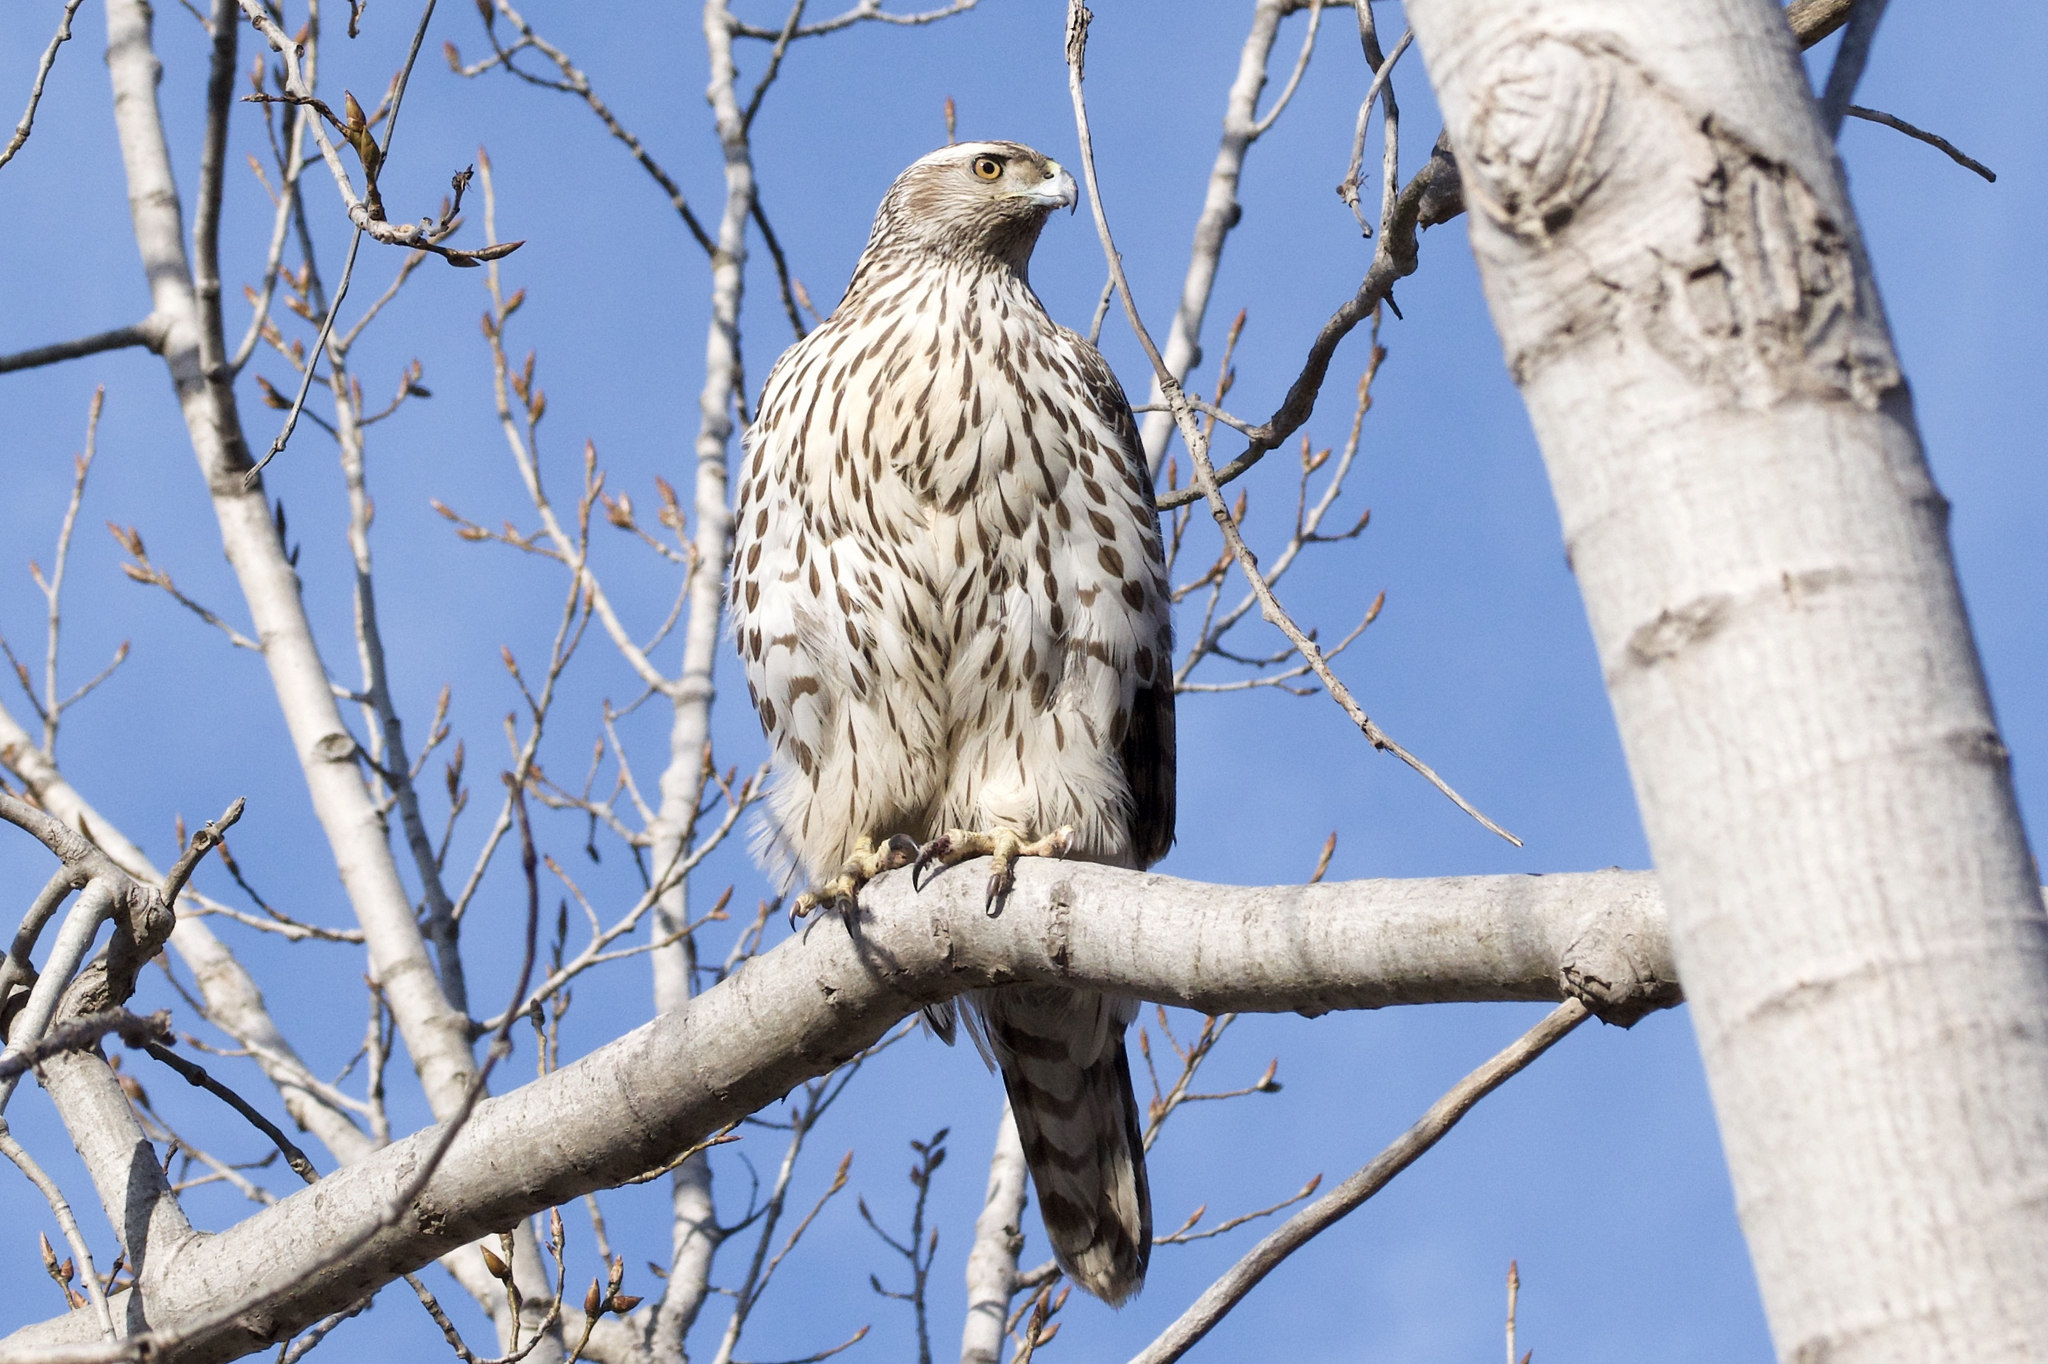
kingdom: Animalia
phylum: Chordata
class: Aves
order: Accipitriformes
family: Accipitridae
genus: Accipiter
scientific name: Accipiter gentilis
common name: Northern goshawk
